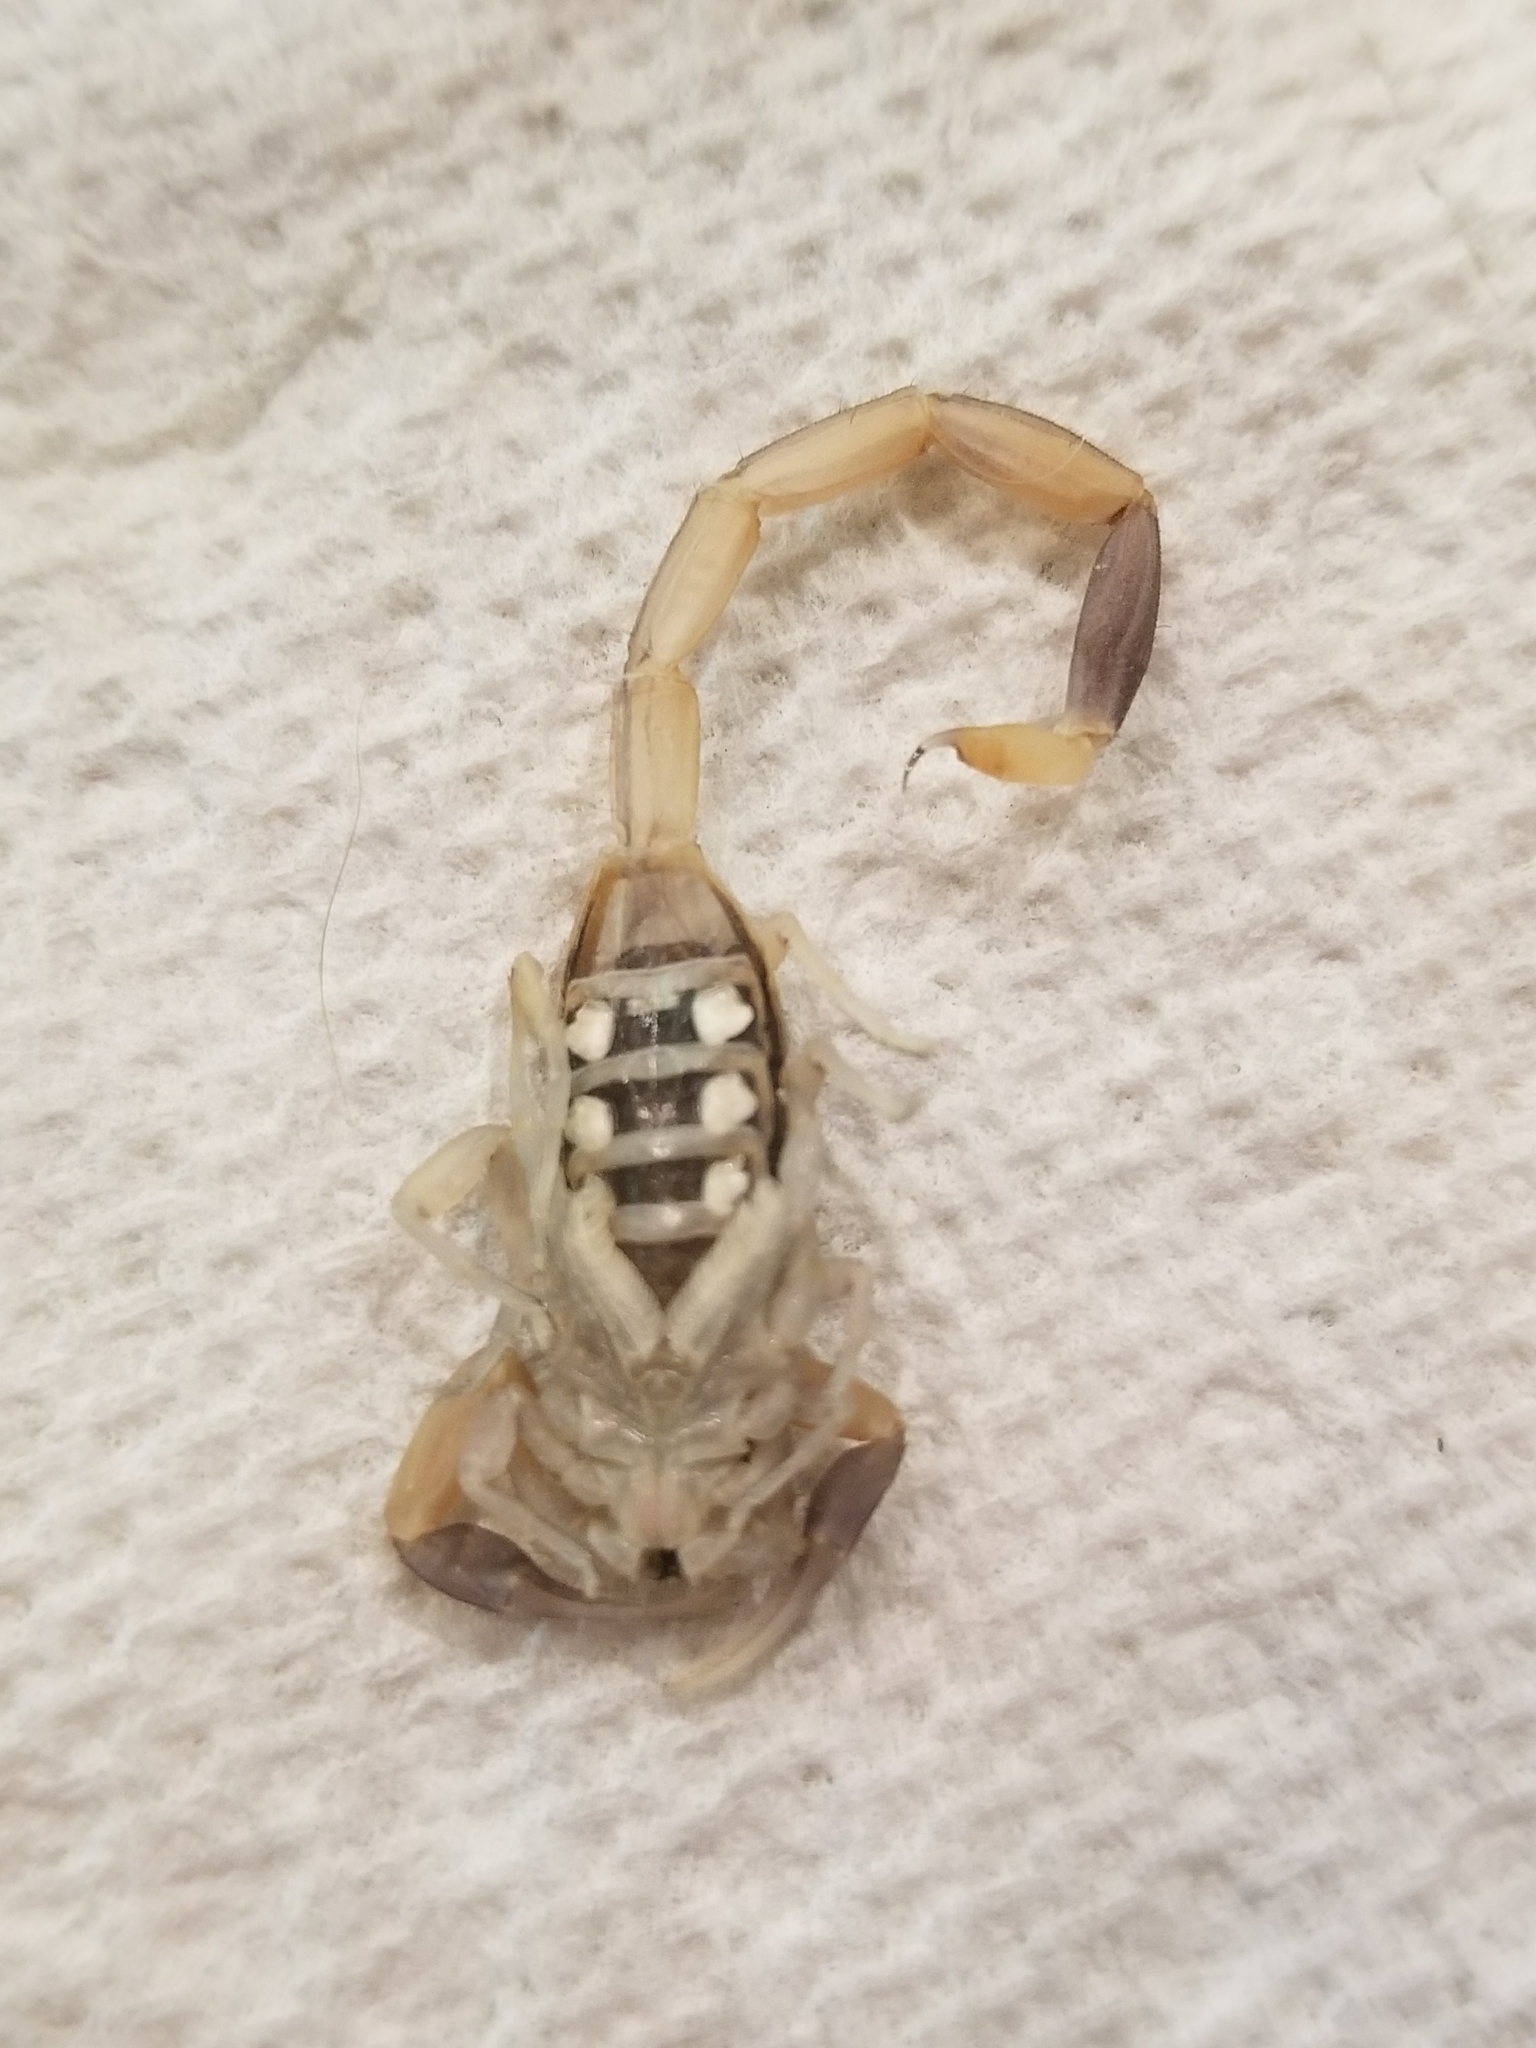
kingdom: Animalia
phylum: Arthropoda
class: Arachnida
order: Scorpiones
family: Buthidae
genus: Centruroides
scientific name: Centruroides vittatus
